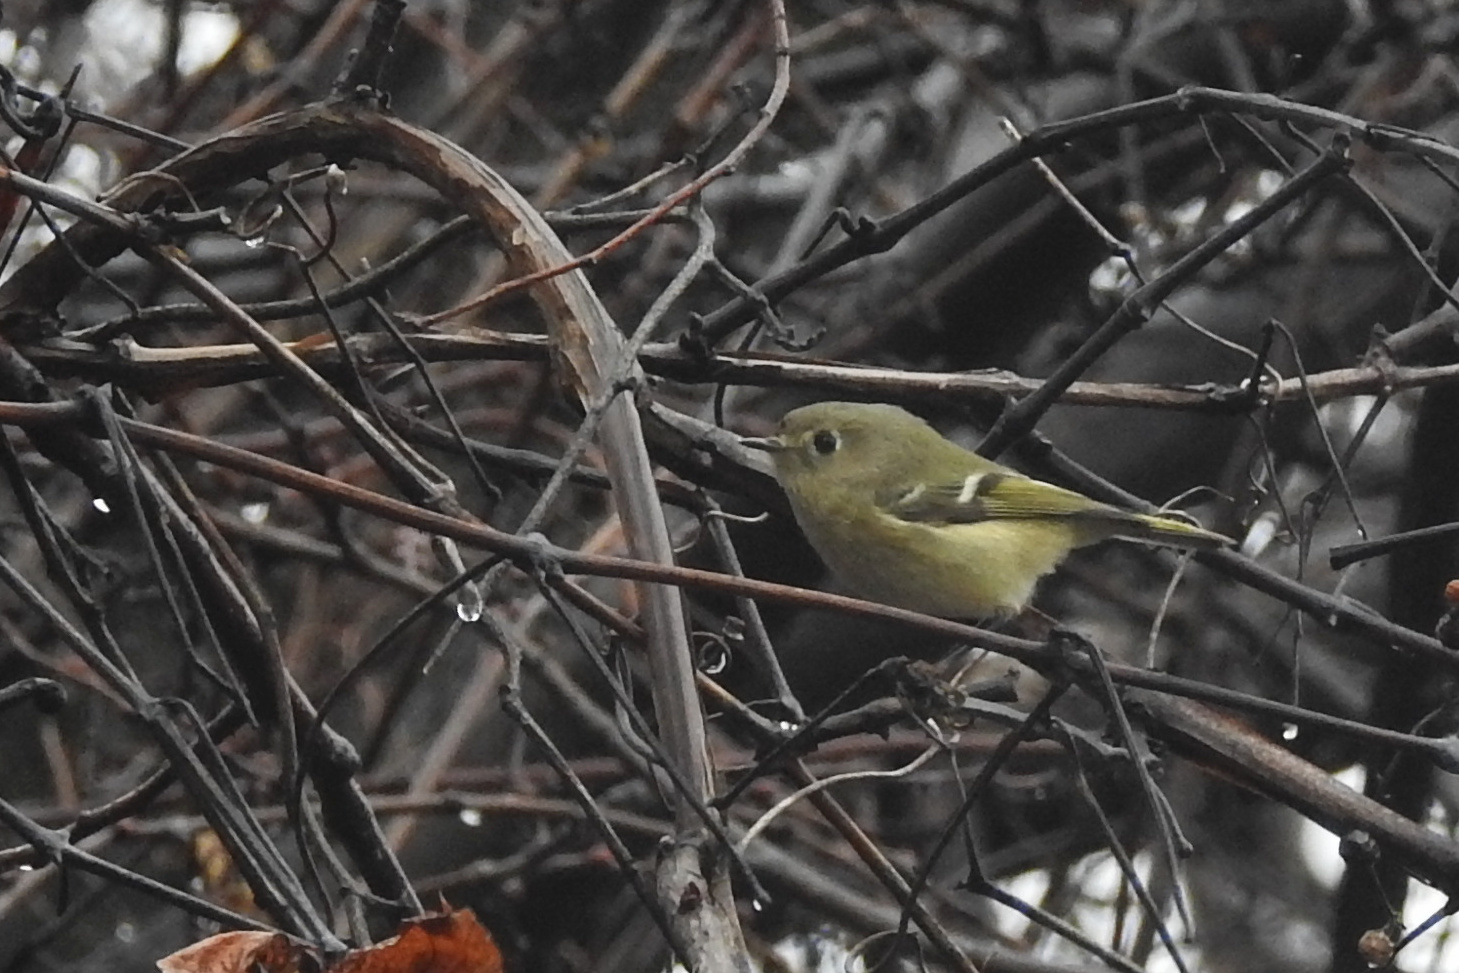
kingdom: Animalia
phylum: Chordata
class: Aves
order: Passeriformes
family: Regulidae
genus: Regulus
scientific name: Regulus calendula
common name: Ruby-crowned kinglet
